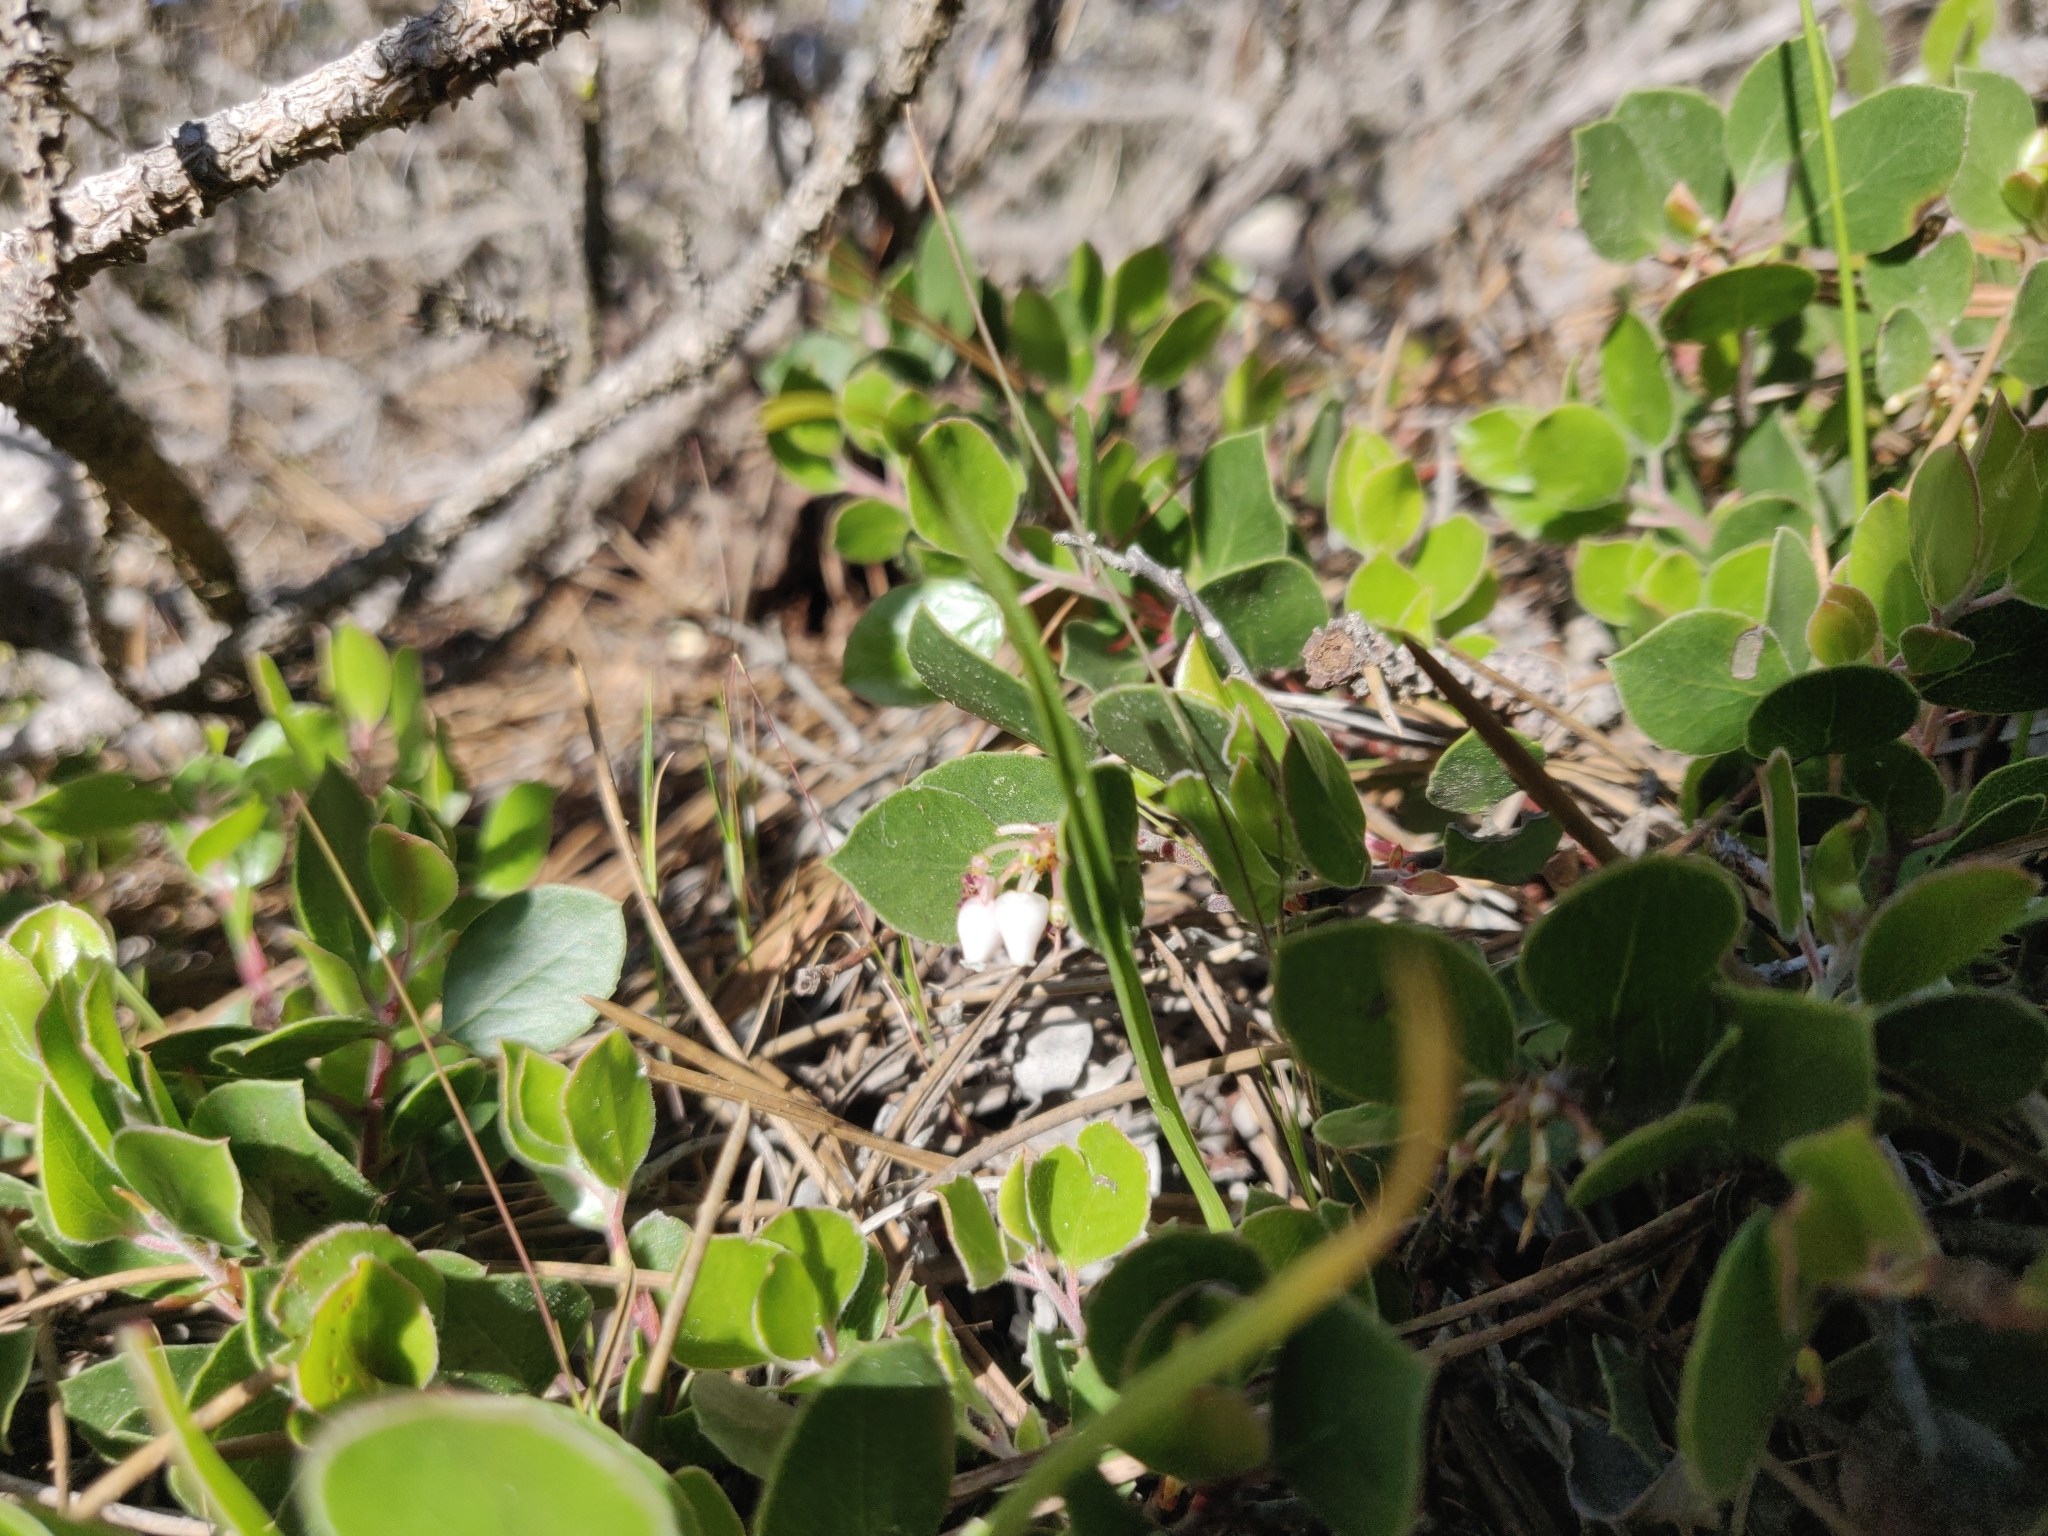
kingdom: Plantae
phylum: Tracheophyta
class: Magnoliopsida
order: Ericales
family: Ericaceae
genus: Arctostaphylos
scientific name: Arctostaphylos hookeri
